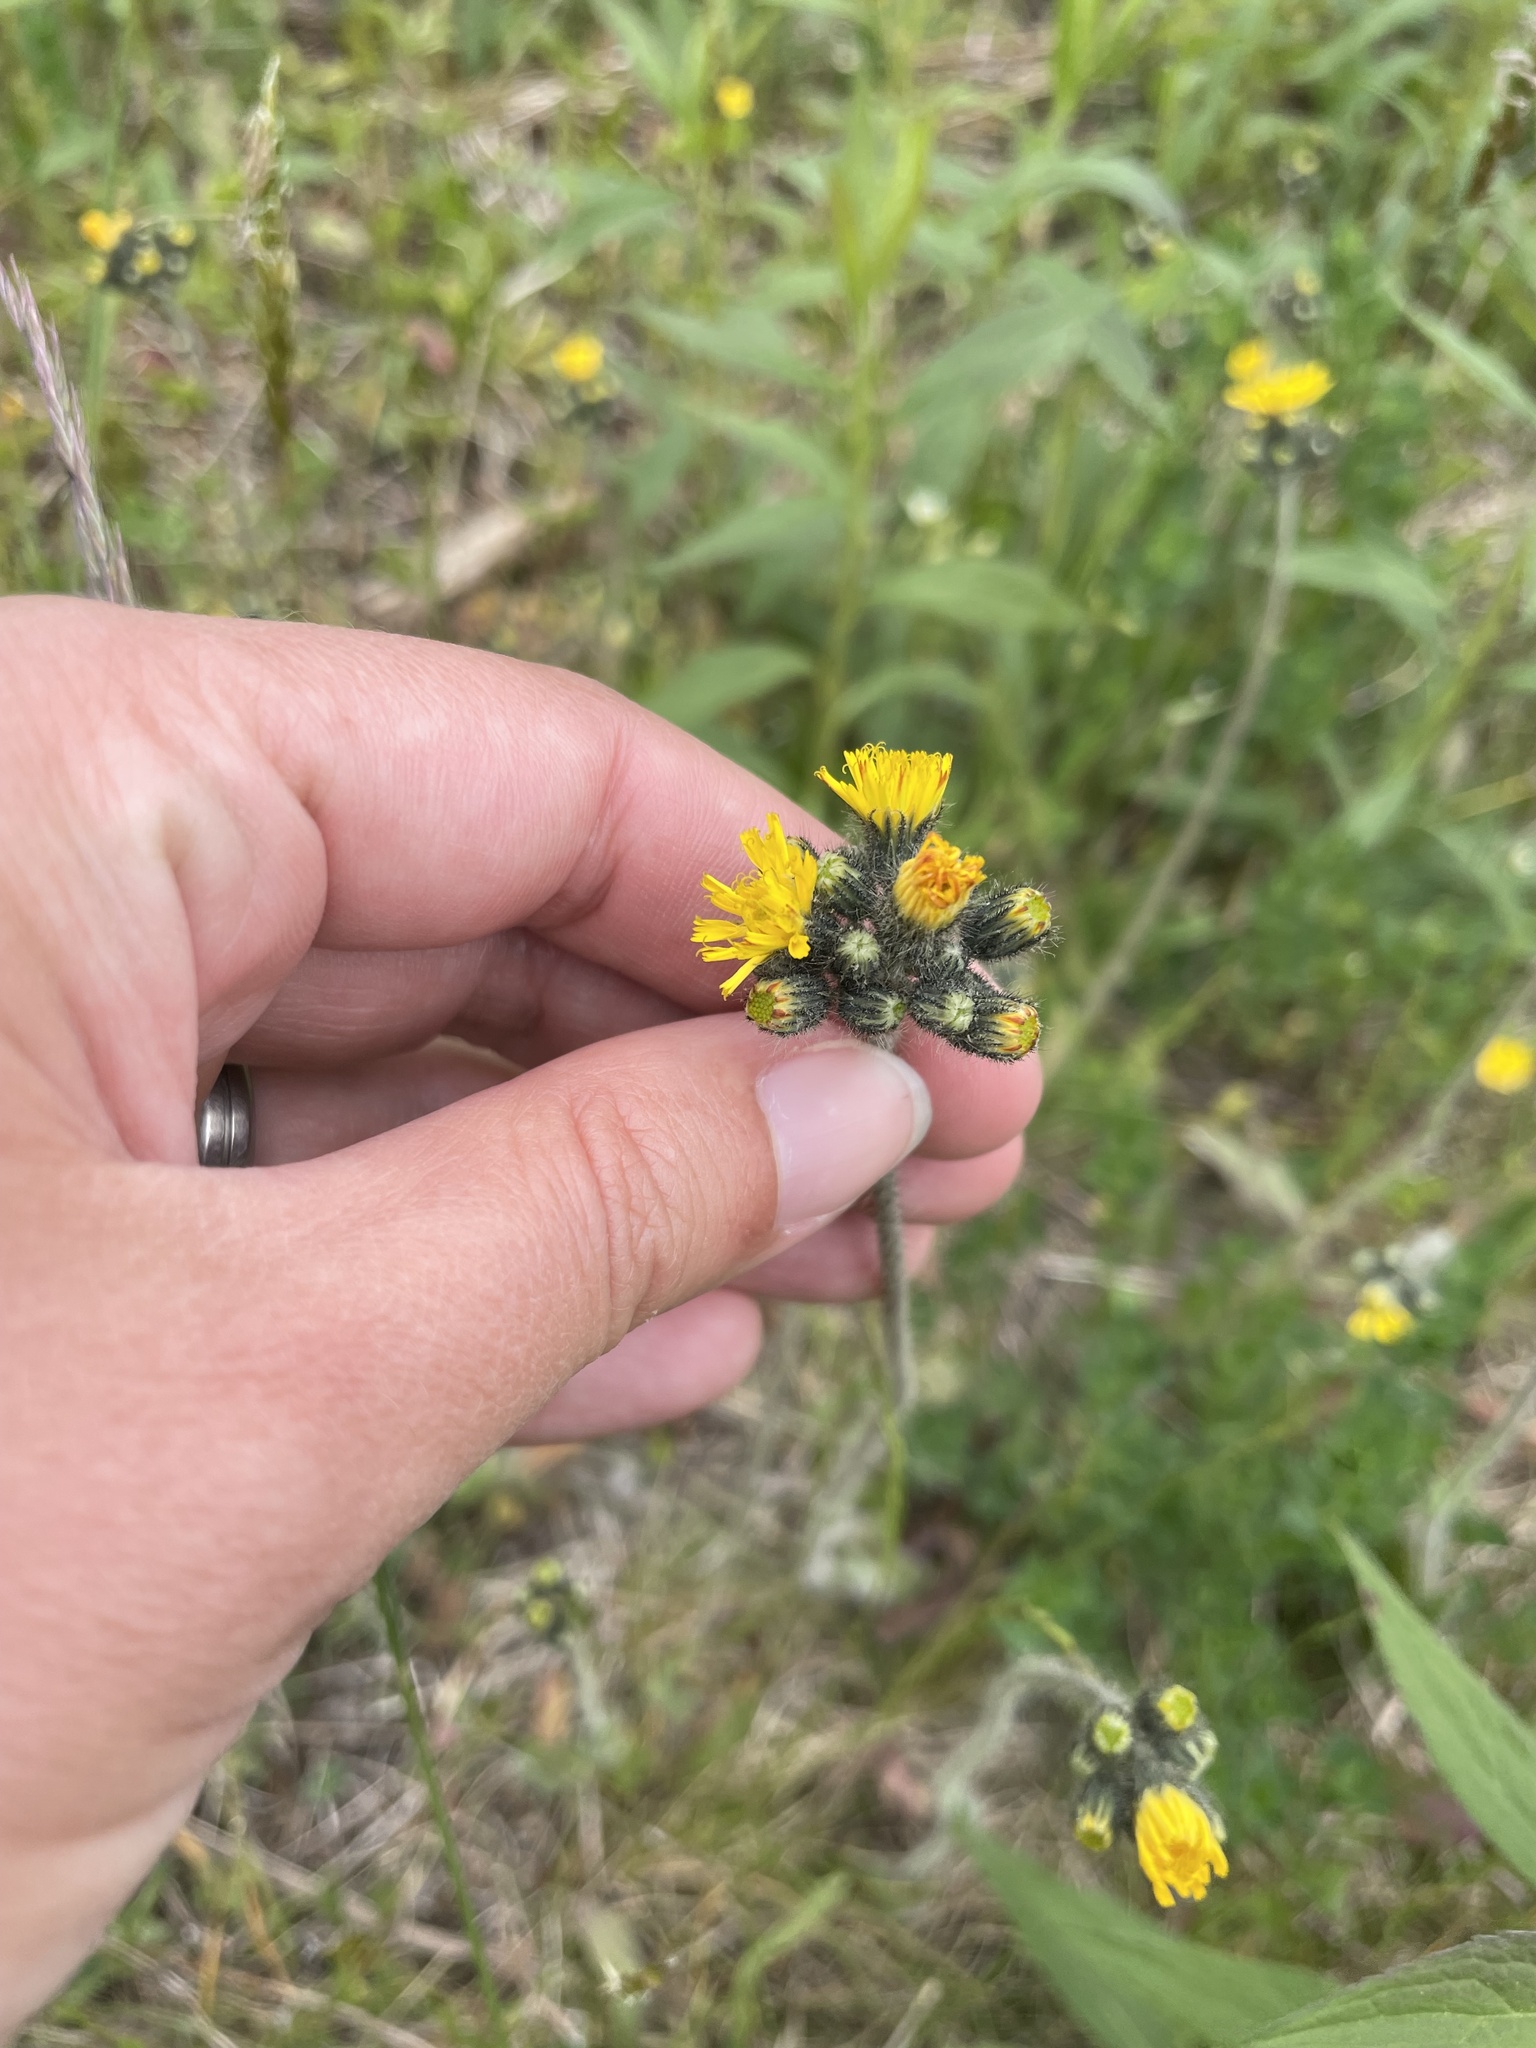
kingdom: Plantae
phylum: Tracheophyta
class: Magnoliopsida
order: Asterales
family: Asteraceae
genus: Pilosella
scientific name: Pilosella caespitosa
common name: Yellow fox-and-cubs
